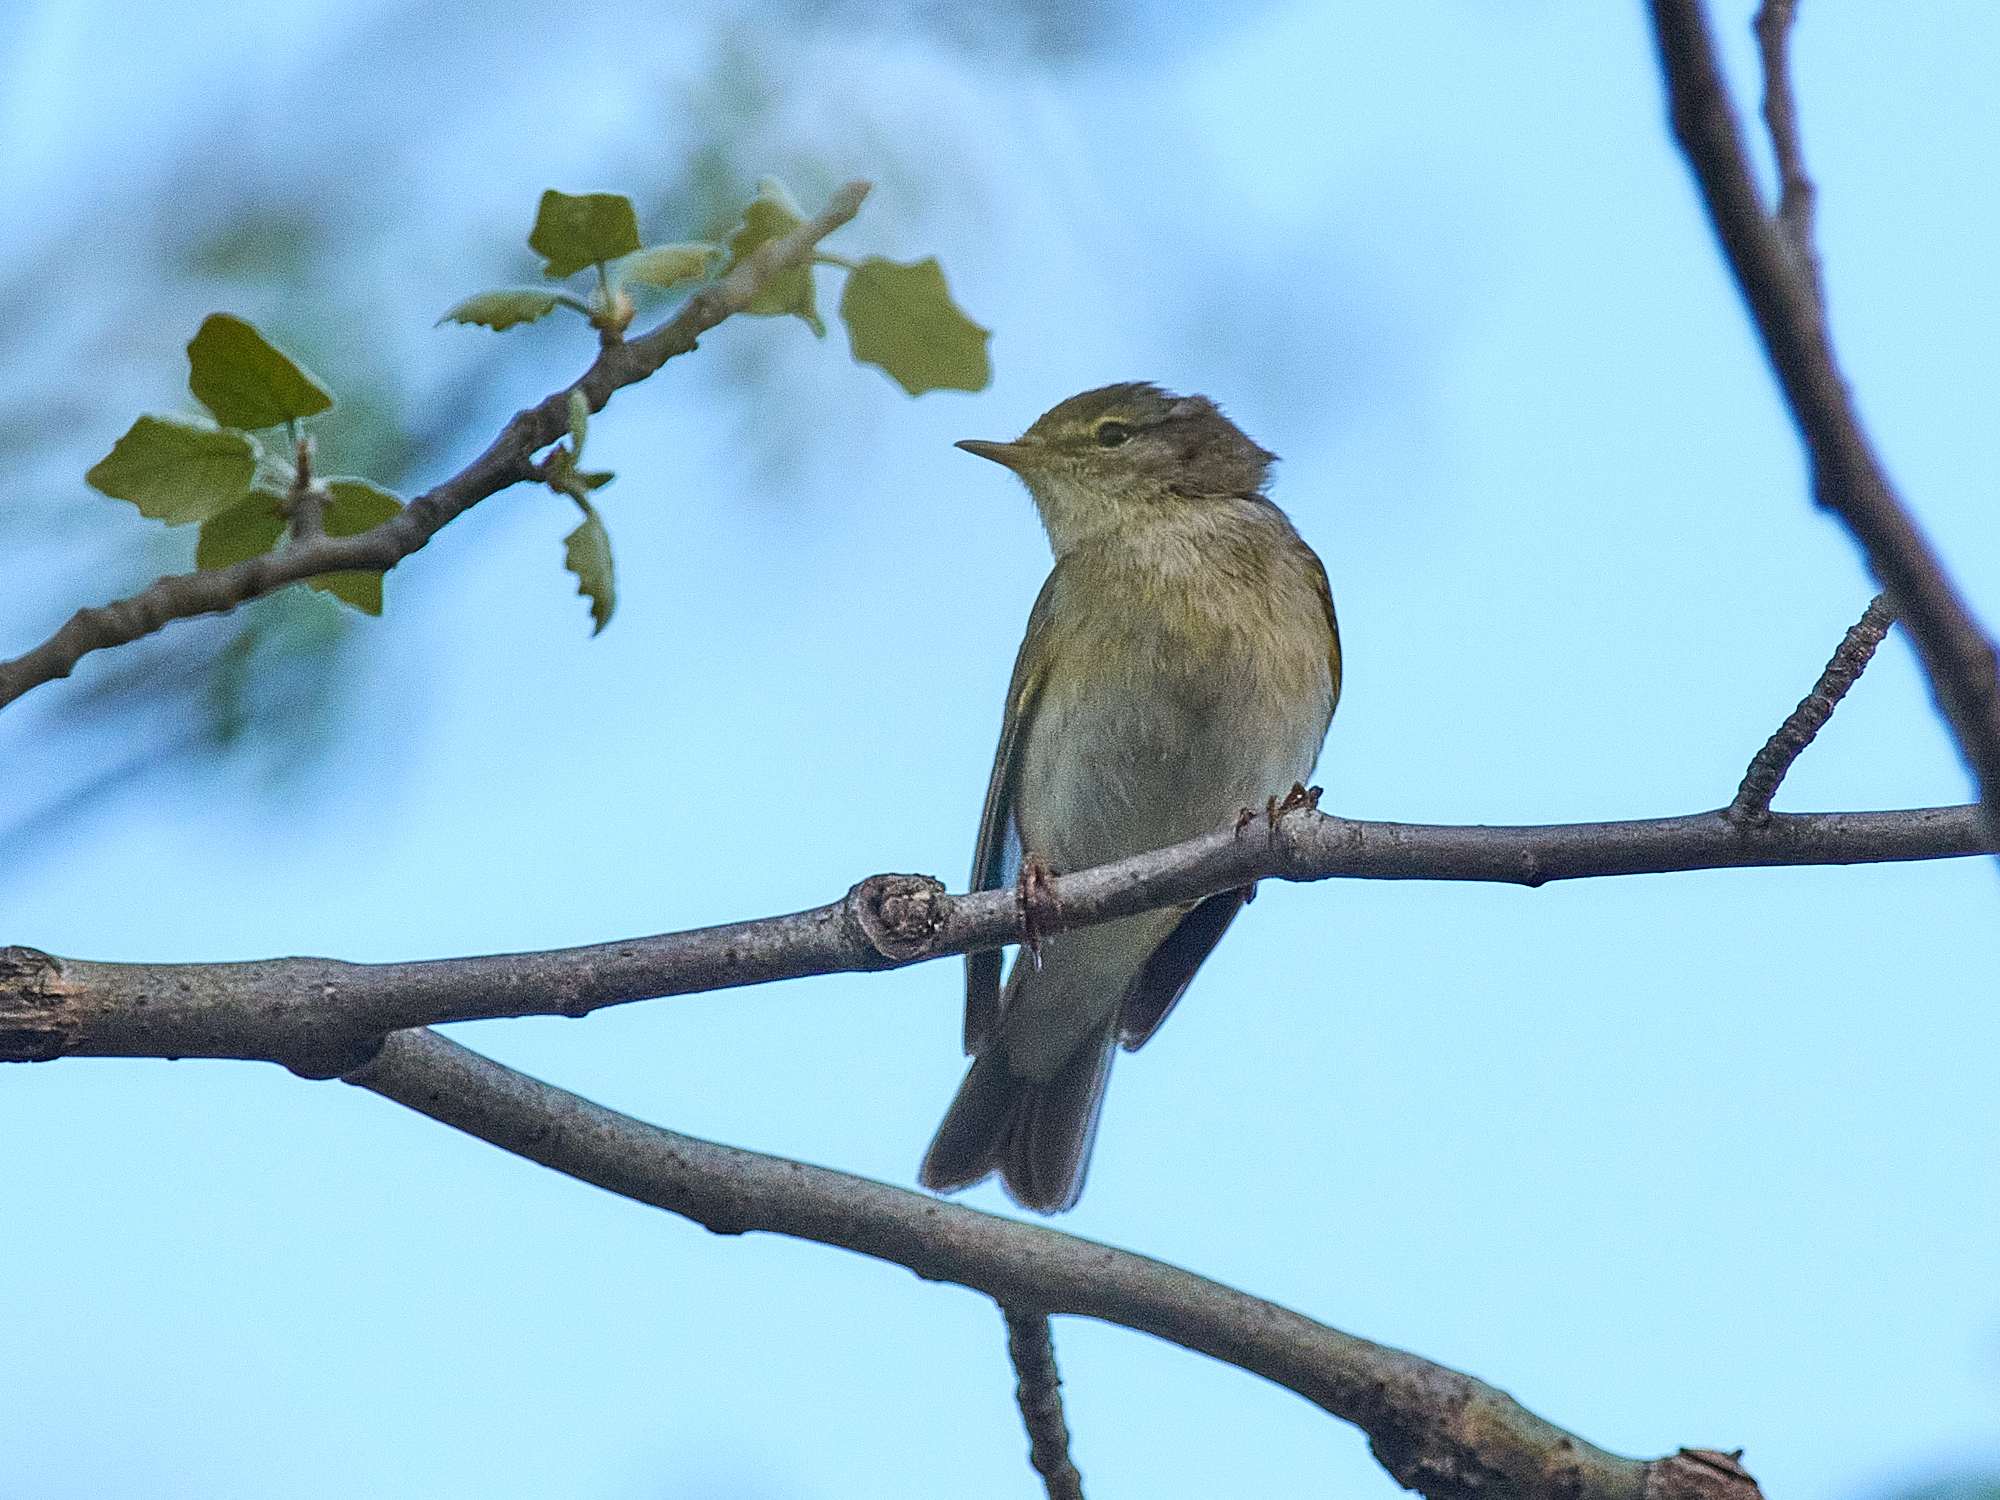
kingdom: Animalia
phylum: Chordata
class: Aves
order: Passeriformes
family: Phylloscopidae
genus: Phylloscopus
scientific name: Phylloscopus trochilus
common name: Willow warbler
